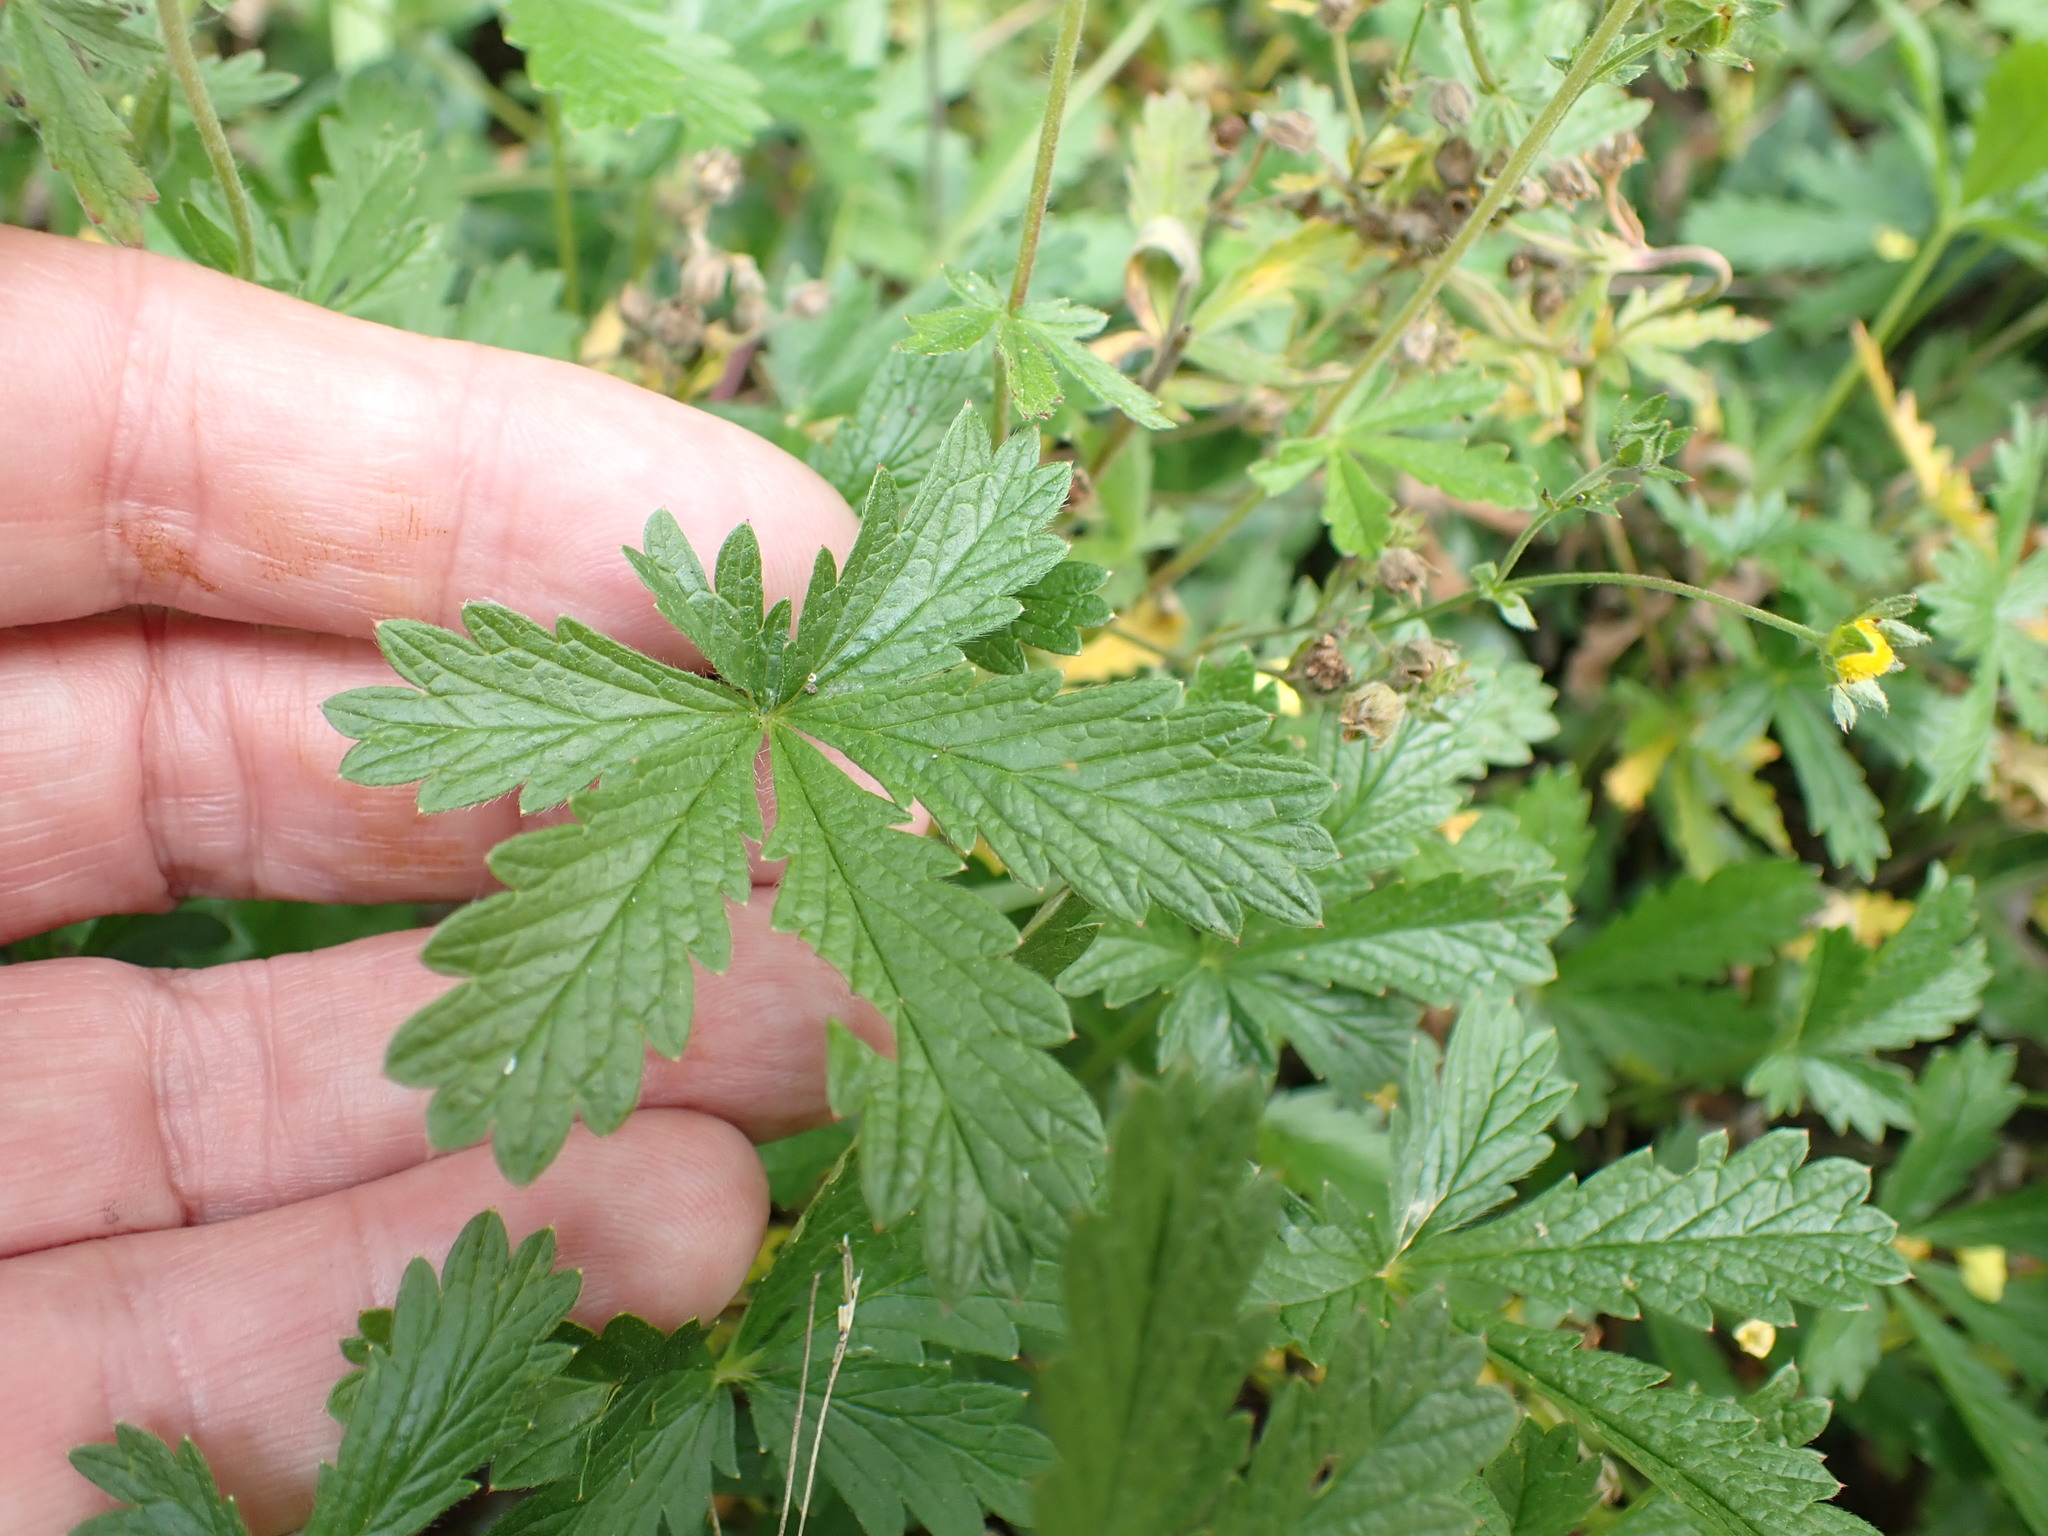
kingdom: Plantae
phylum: Tracheophyta
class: Magnoliopsida
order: Rosales
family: Rosaceae
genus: Potentilla
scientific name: Potentilla intermedia
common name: Downy cinquefoil
